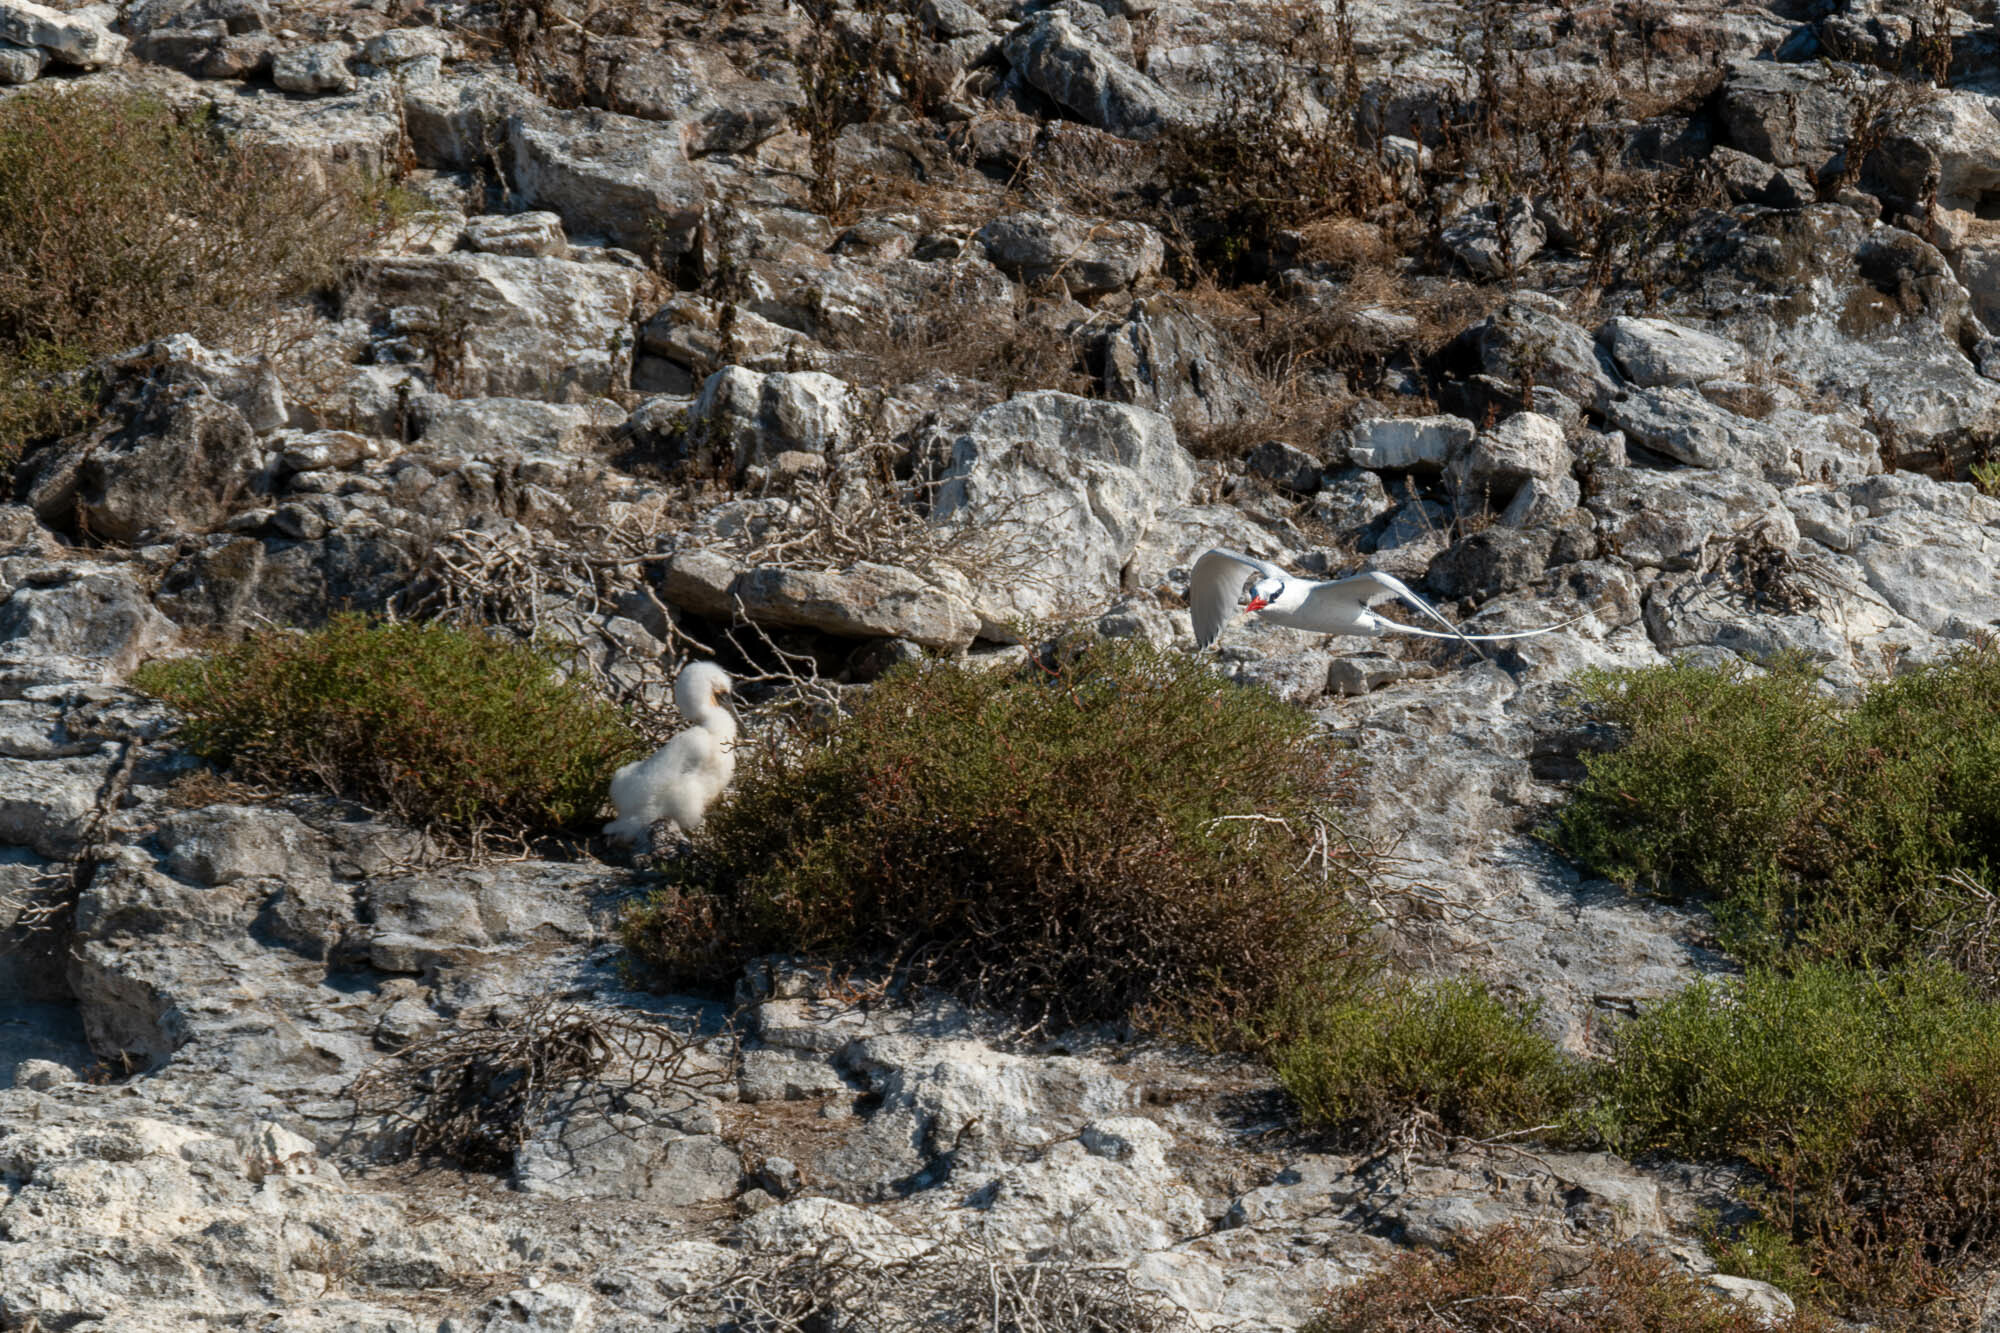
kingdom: Animalia
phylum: Chordata
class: Aves
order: Phaethontiformes
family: Phaethontidae
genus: Phaethon
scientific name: Phaethon aethereus
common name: Red-billed tropicbird
